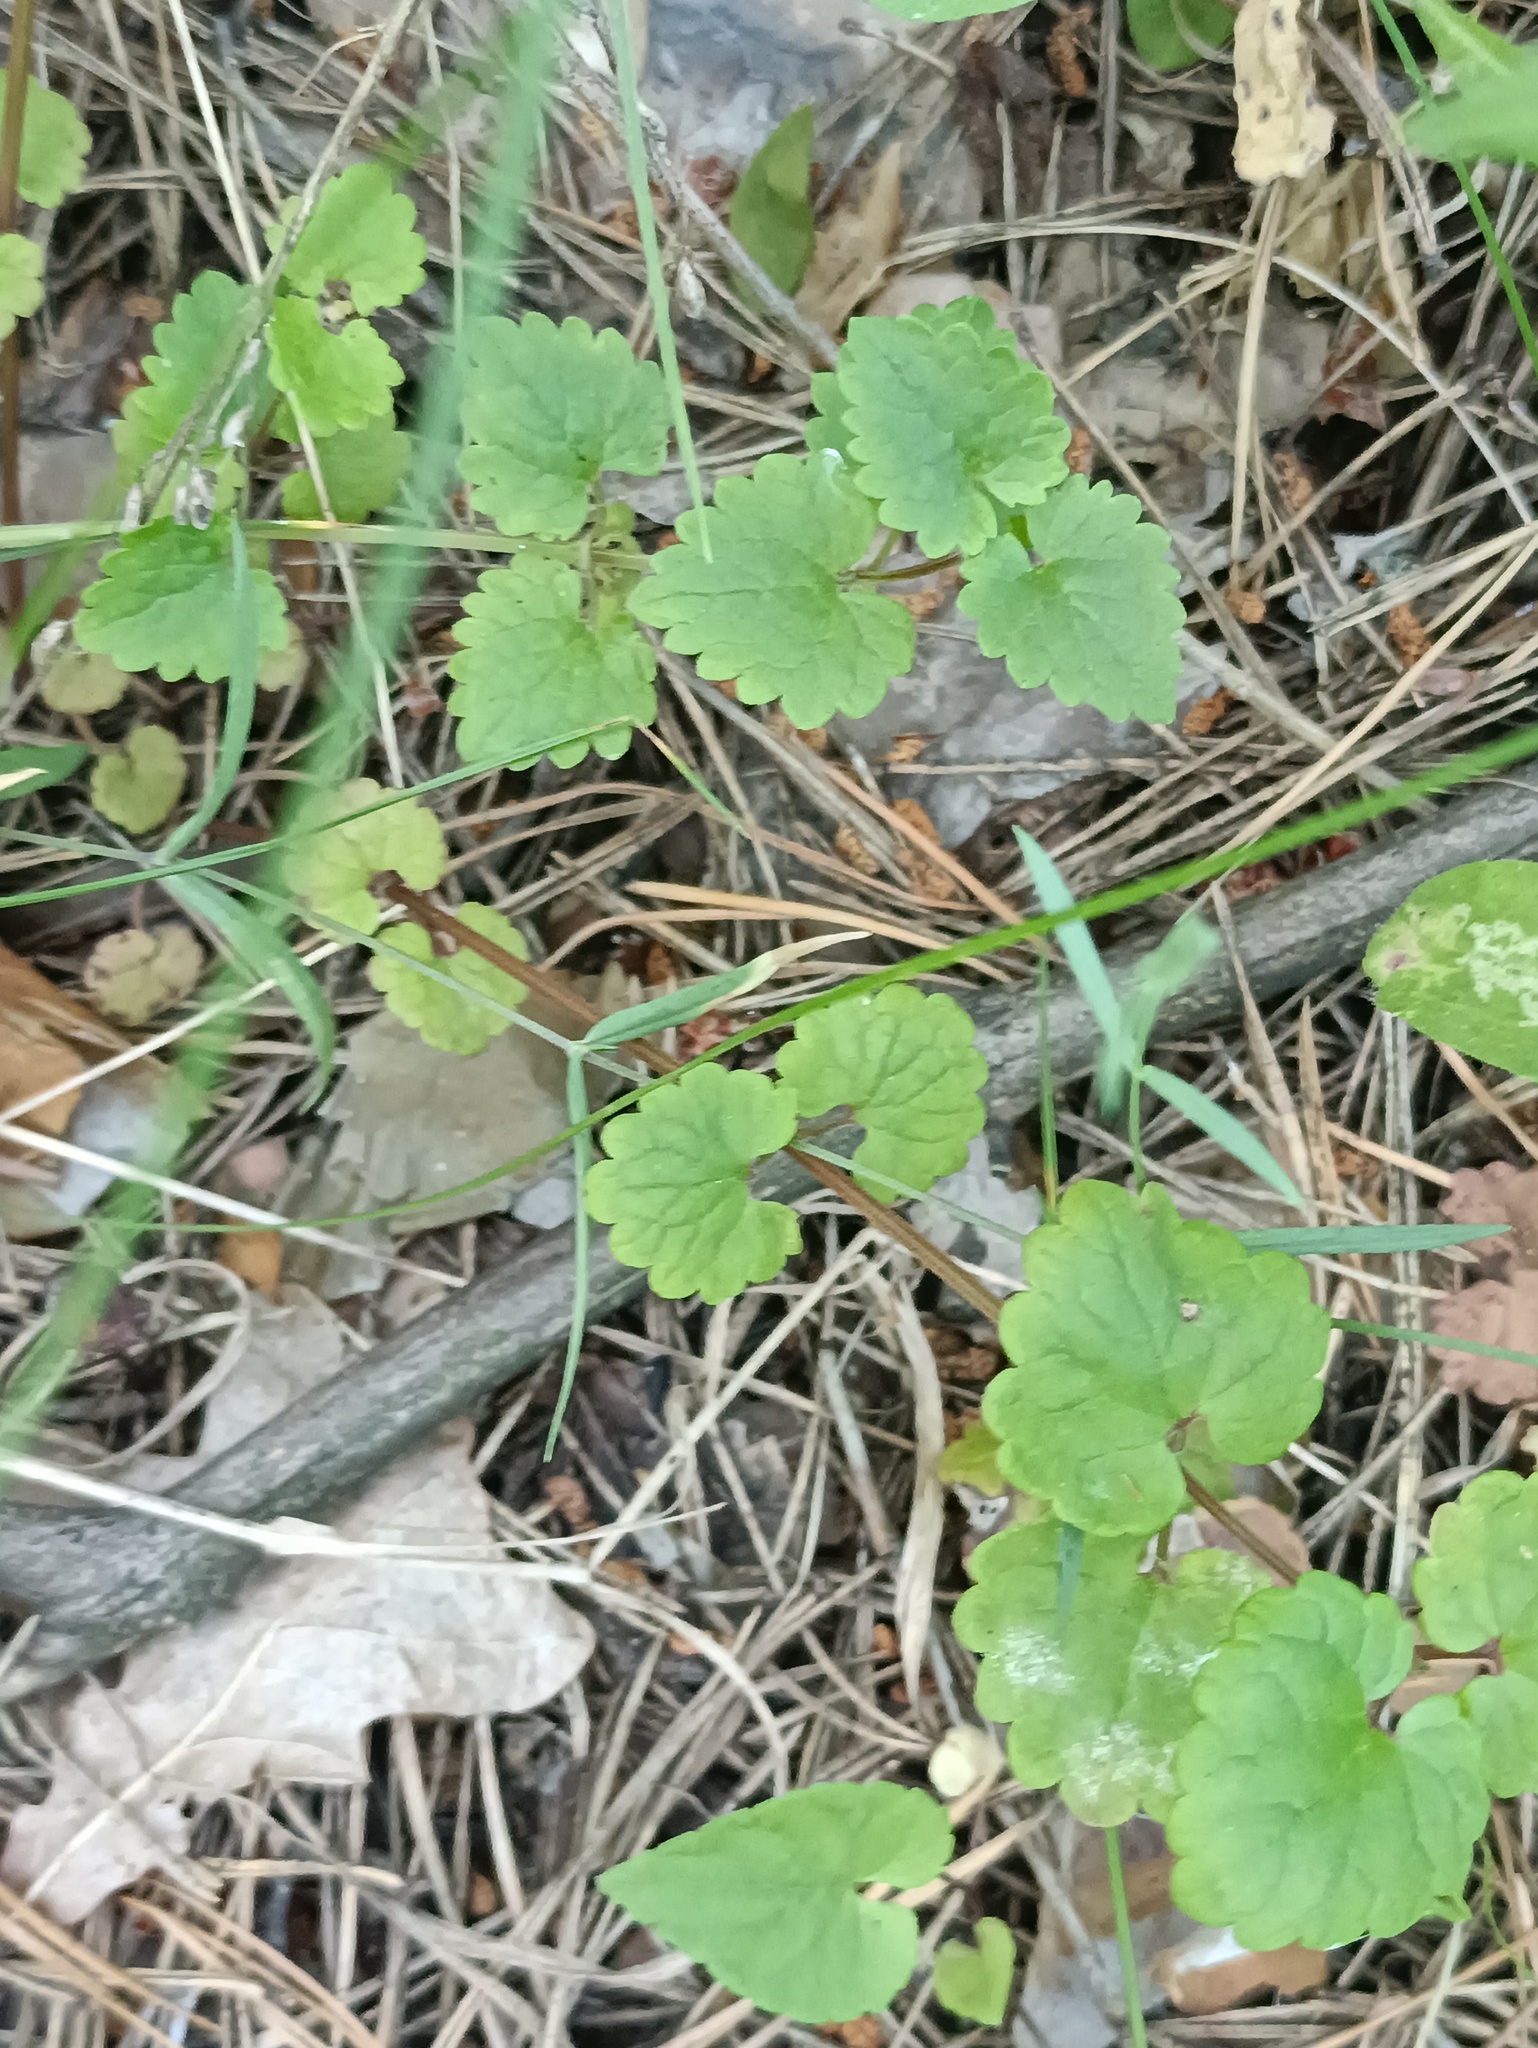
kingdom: Plantae
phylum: Tracheophyta
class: Magnoliopsida
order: Lamiales
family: Lamiaceae
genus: Glechoma
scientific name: Glechoma hederacea
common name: Ground ivy
